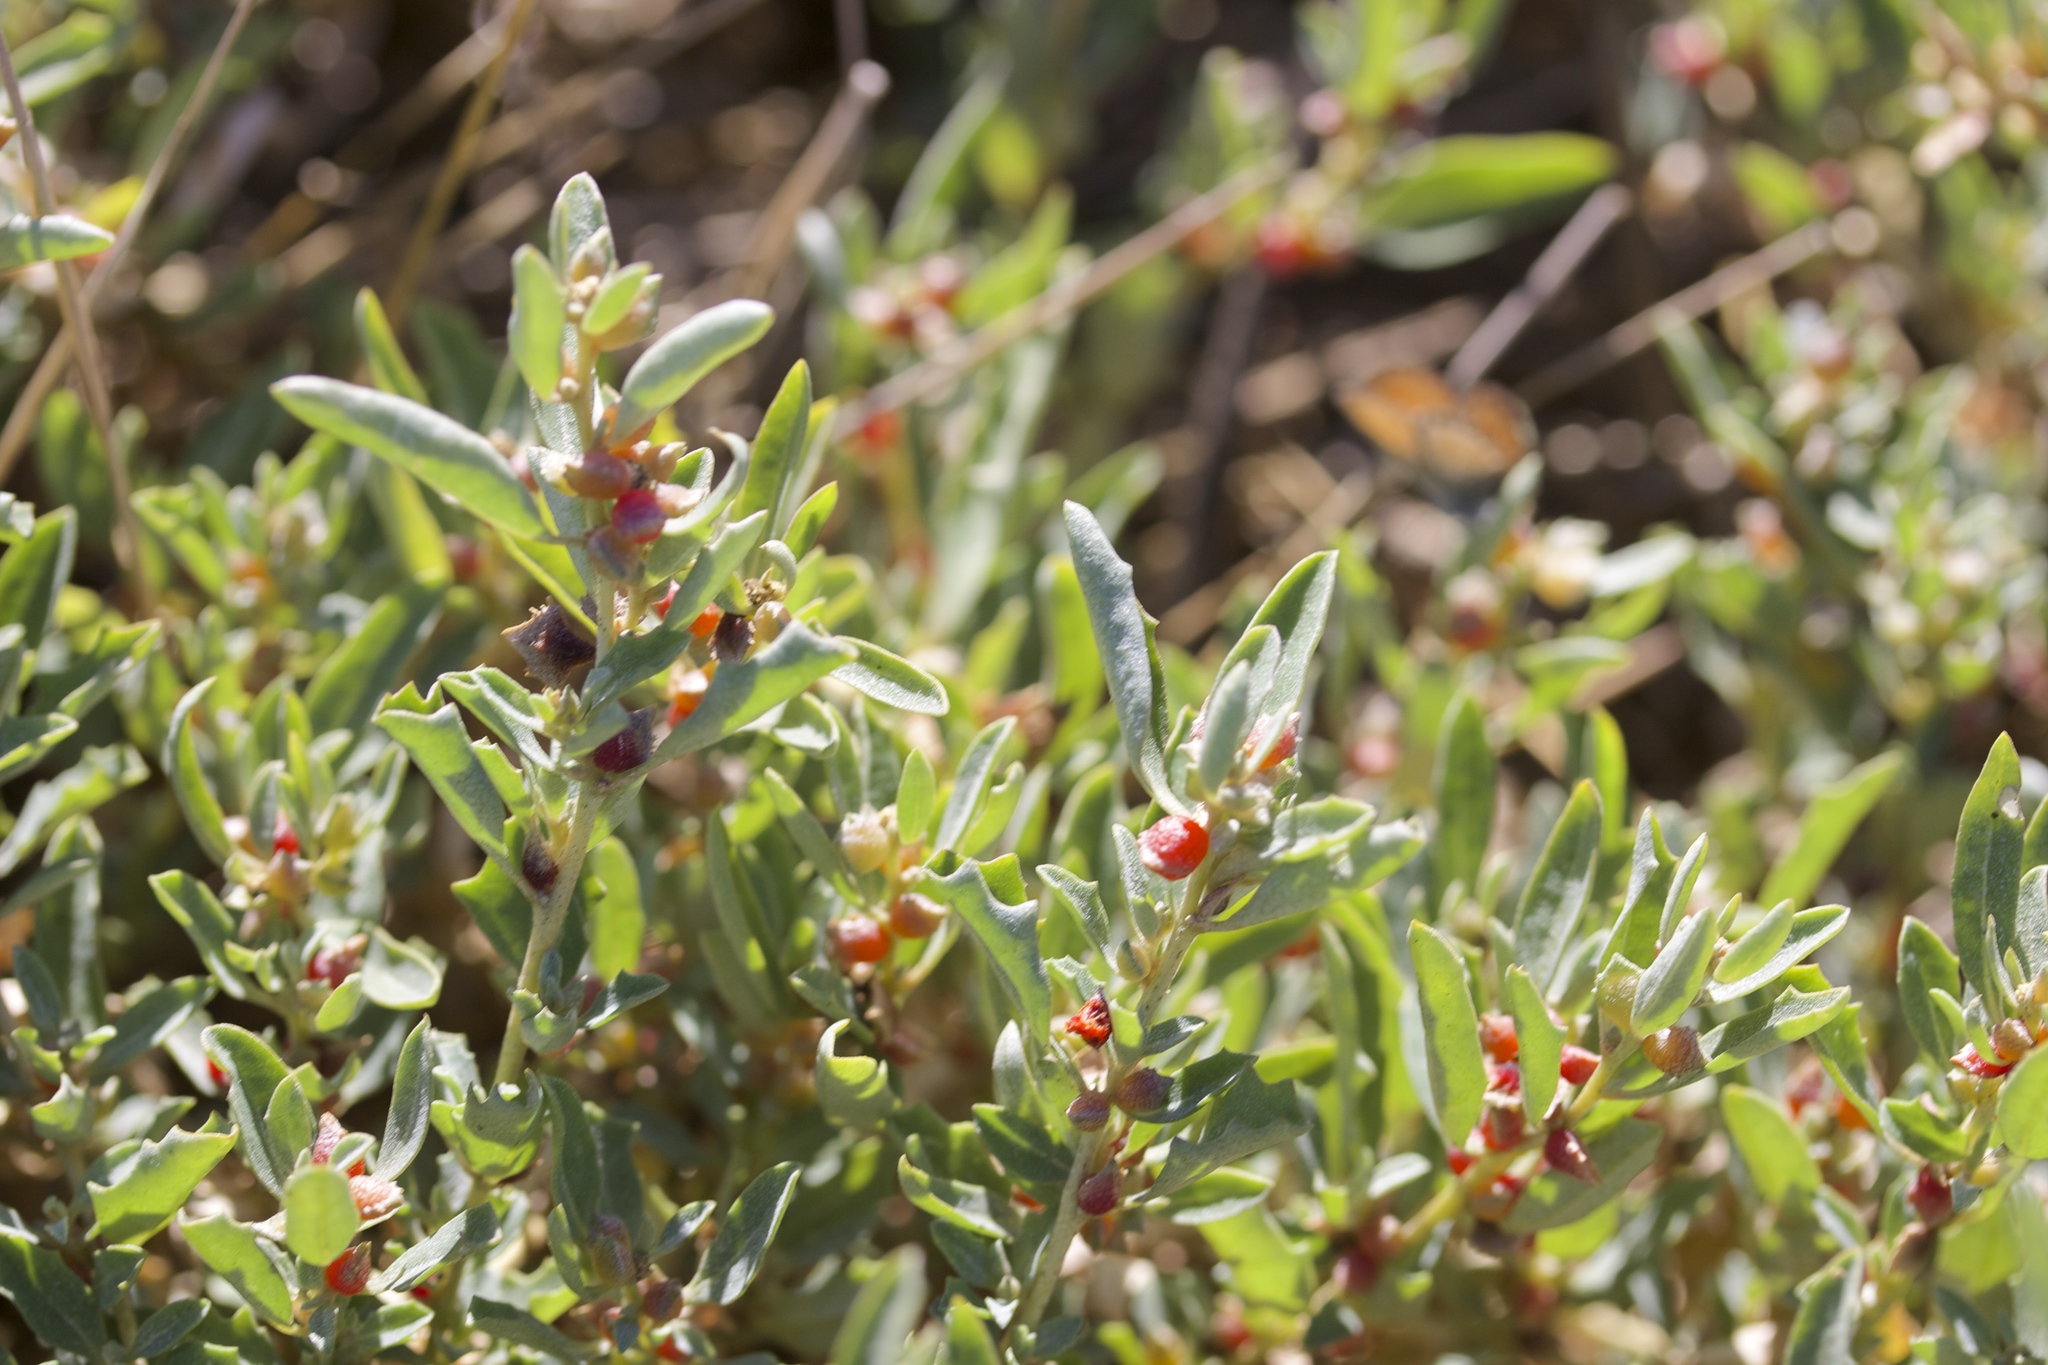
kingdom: Plantae
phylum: Tracheophyta
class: Magnoliopsida
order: Caryophyllales
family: Amaranthaceae
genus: Atriplex
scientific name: Atriplex semibaccata
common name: Australian saltbush
